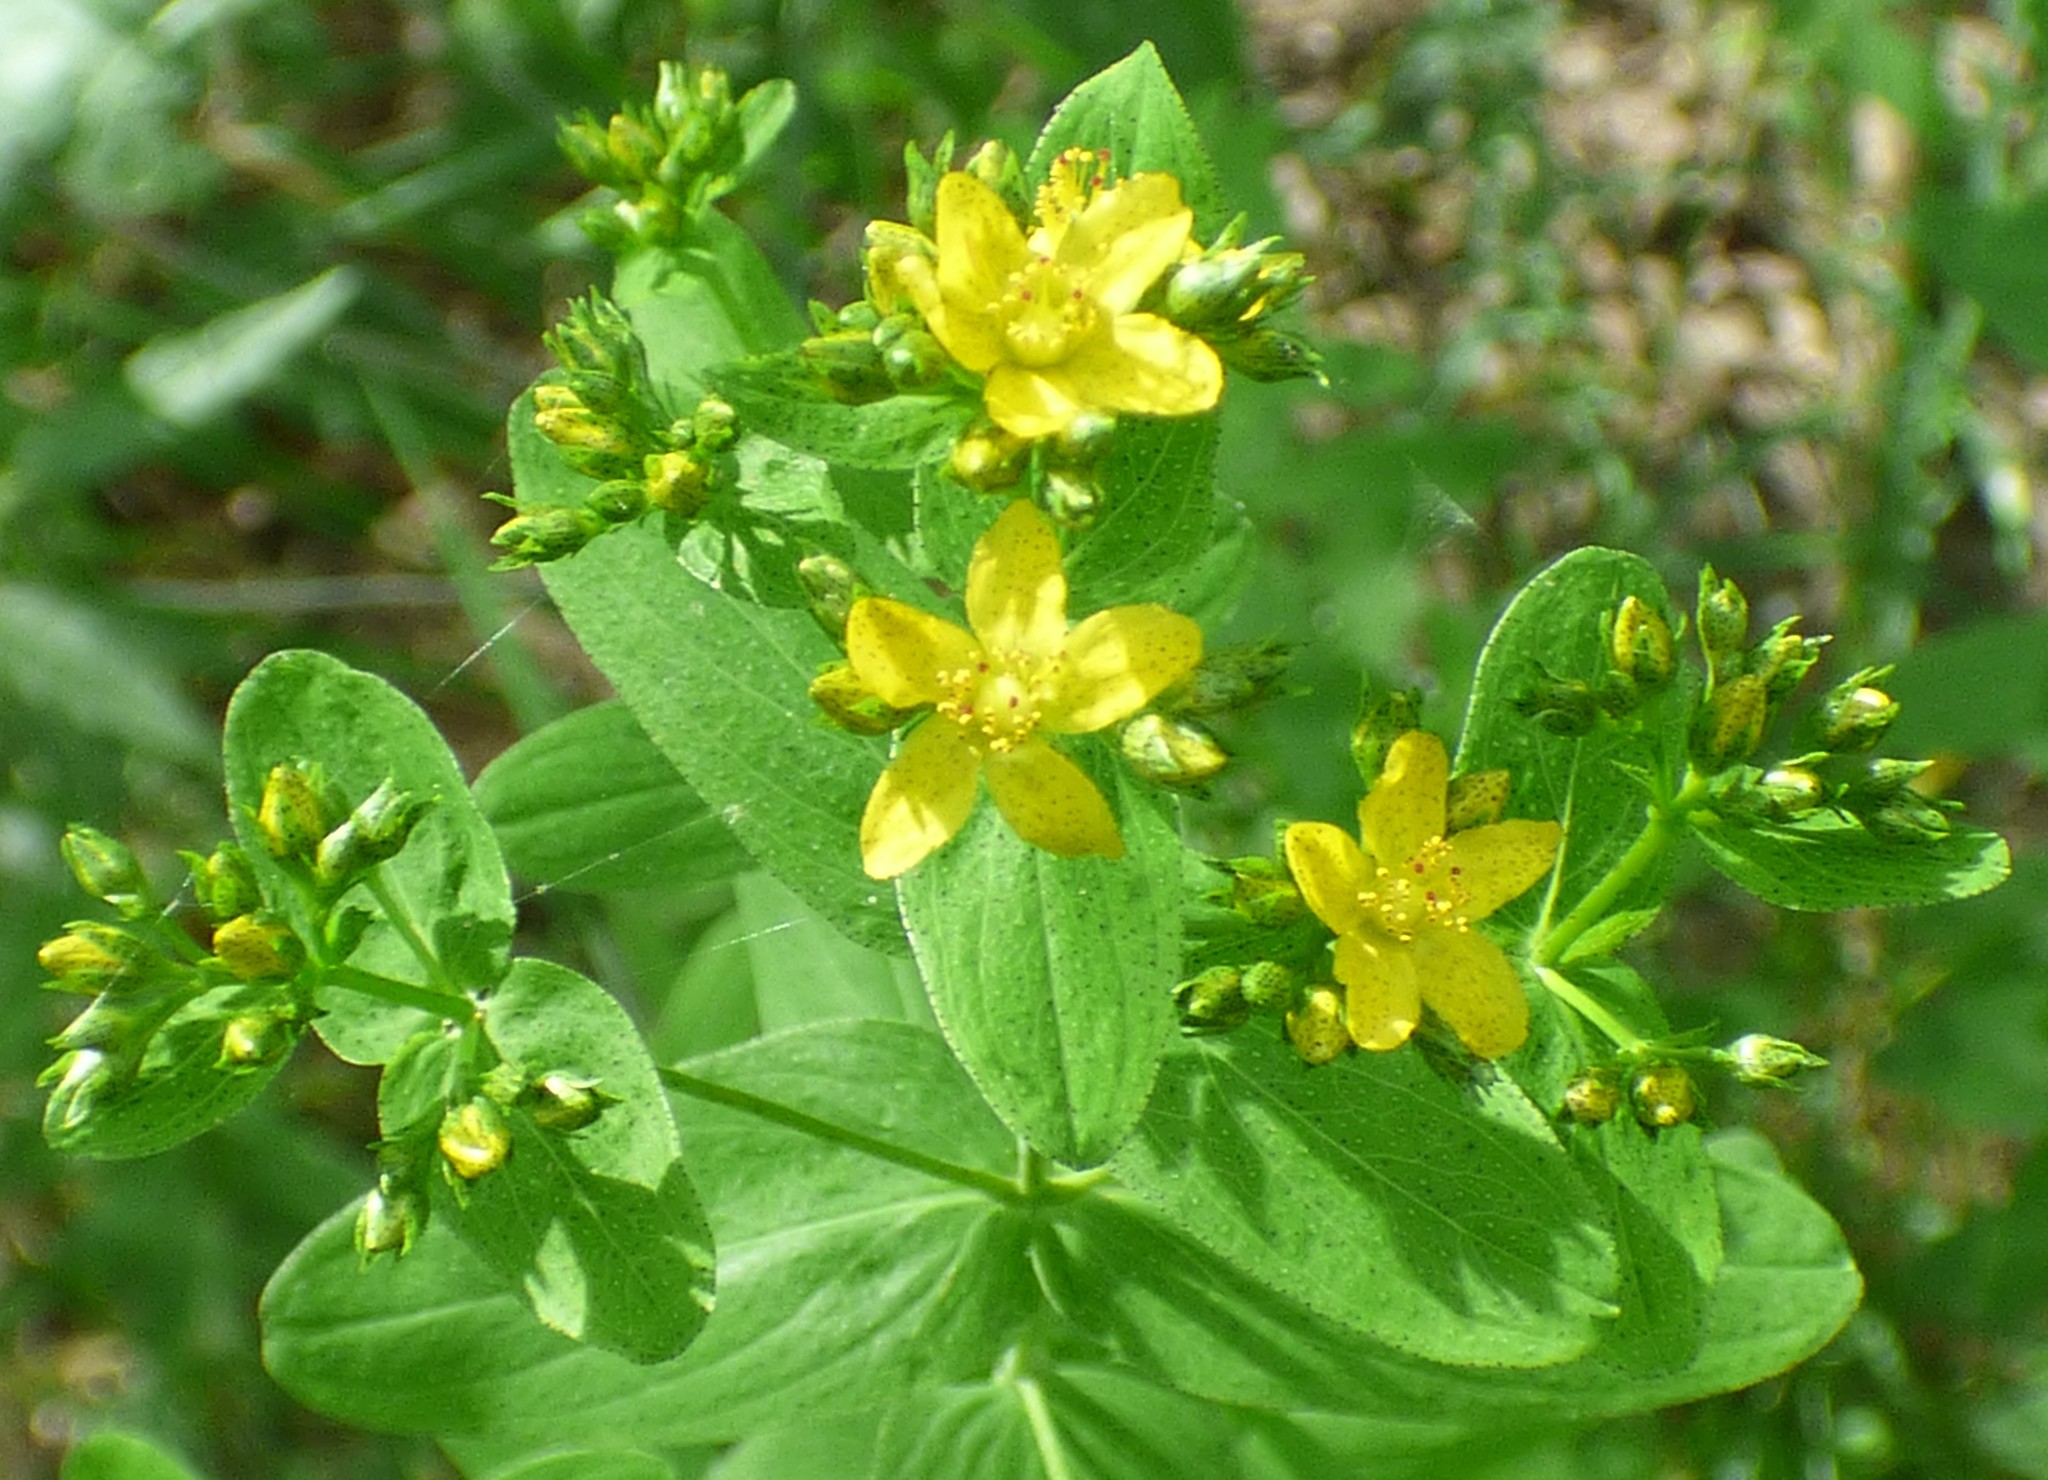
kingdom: Plantae
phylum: Tracheophyta
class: Magnoliopsida
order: Malpighiales
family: Hypericaceae
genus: Hypericum
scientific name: Hypericum punctatum
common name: Spotted st. john's-wort
